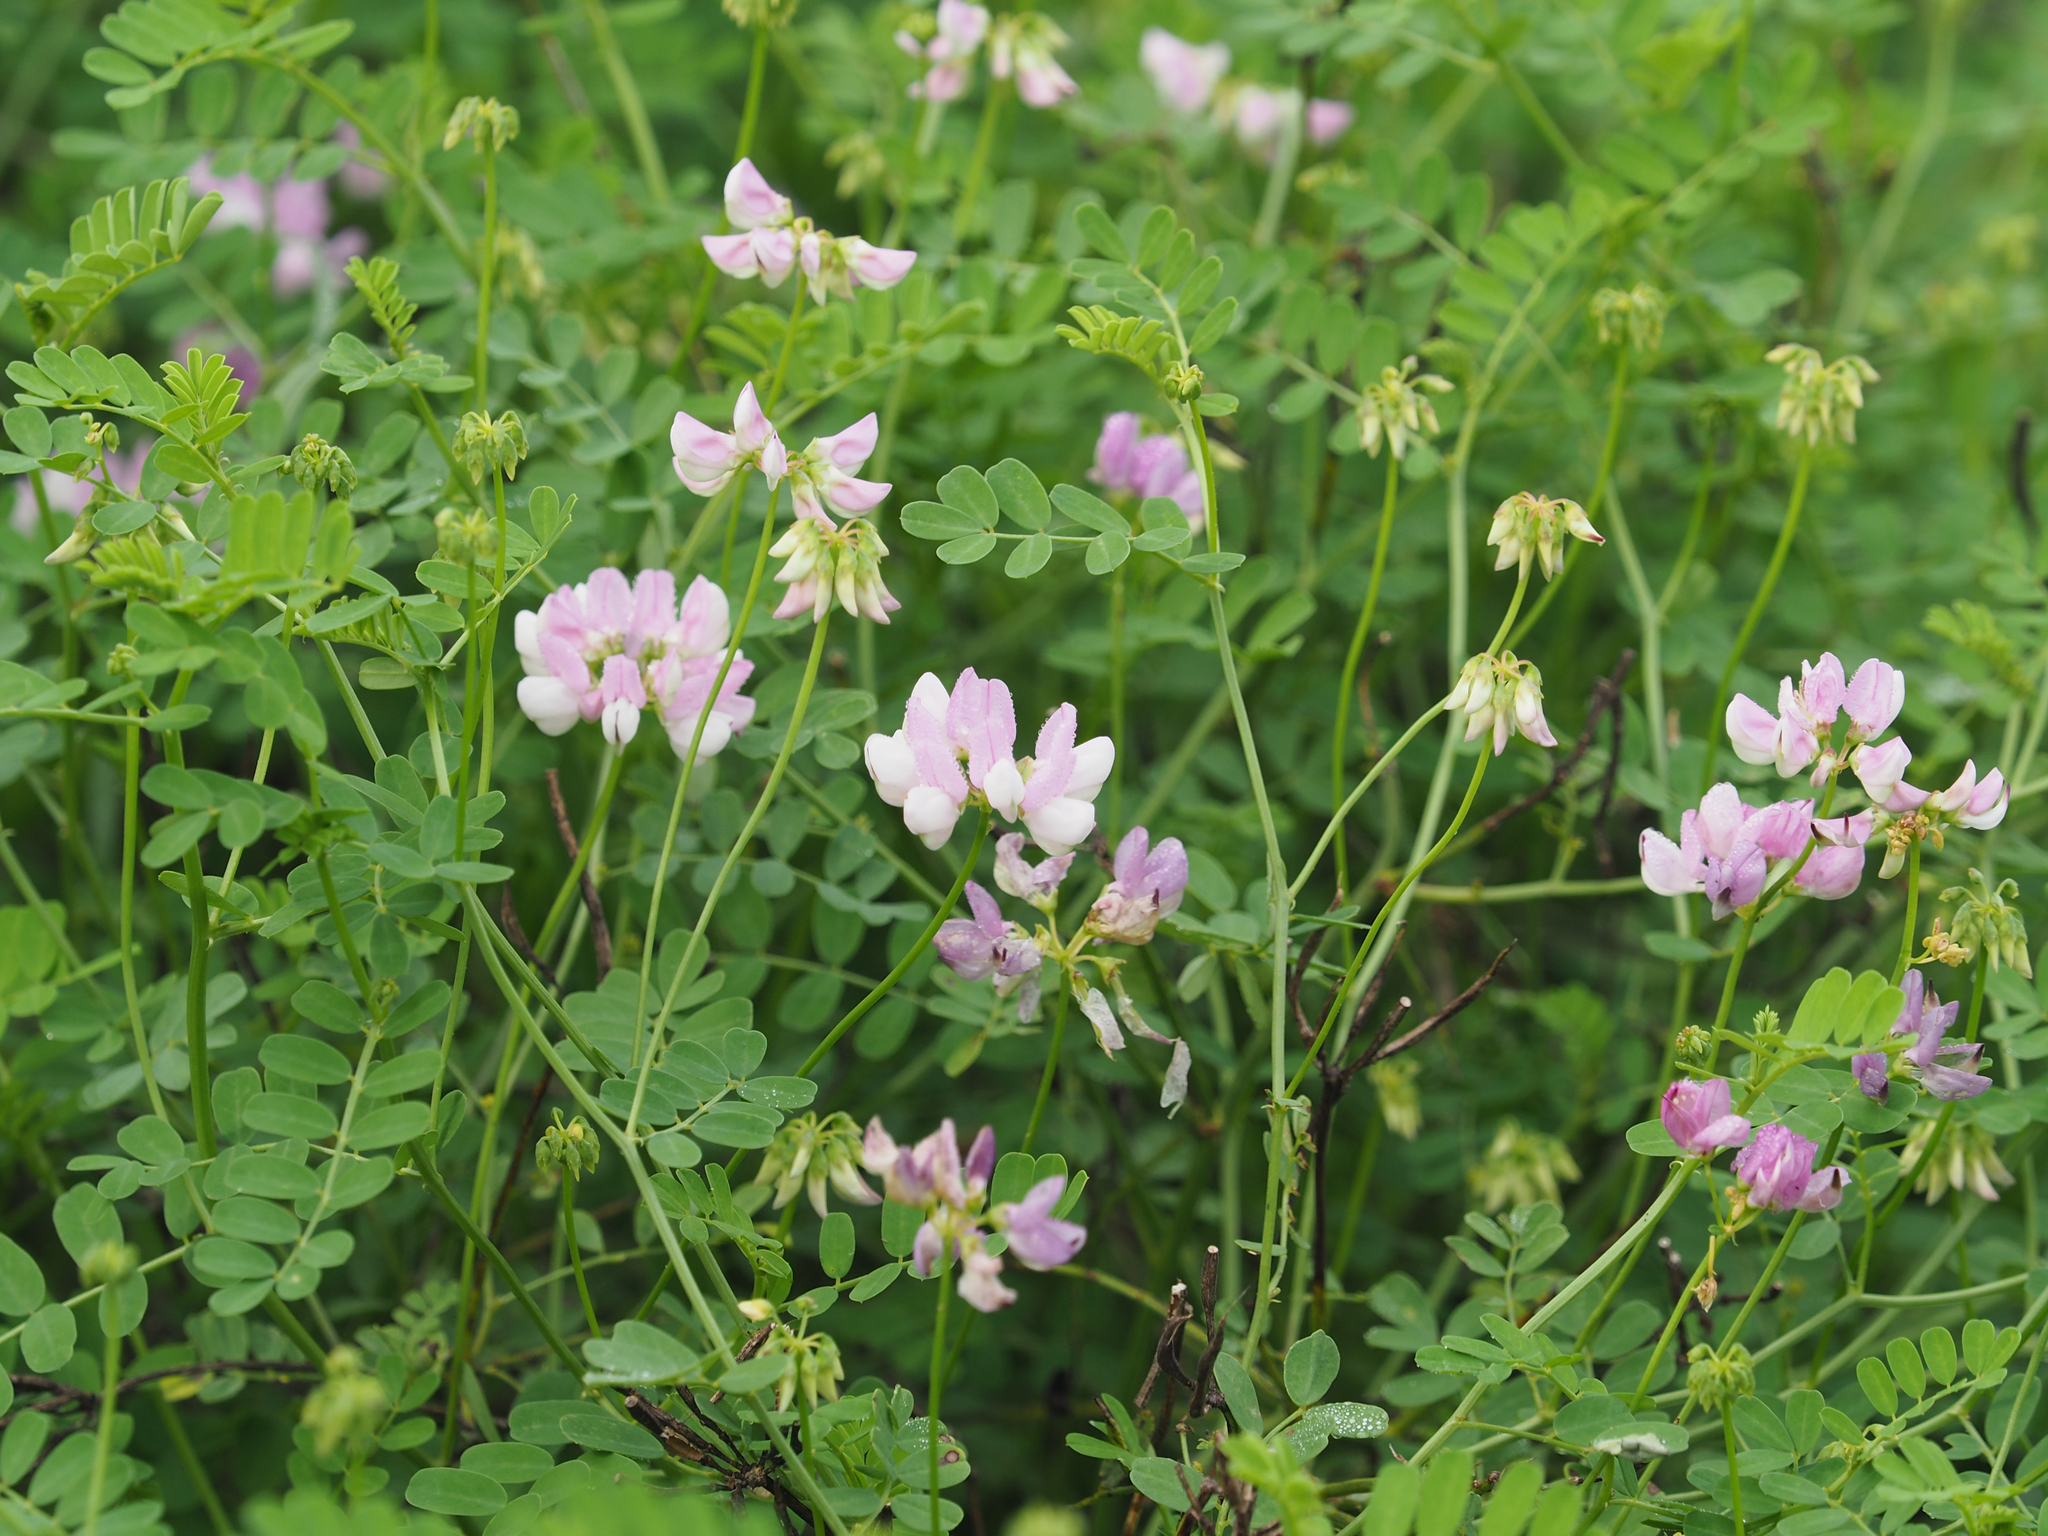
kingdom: Plantae
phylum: Tracheophyta
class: Magnoliopsida
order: Fabales
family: Fabaceae
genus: Coronilla
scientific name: Coronilla varia
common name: Crownvetch
